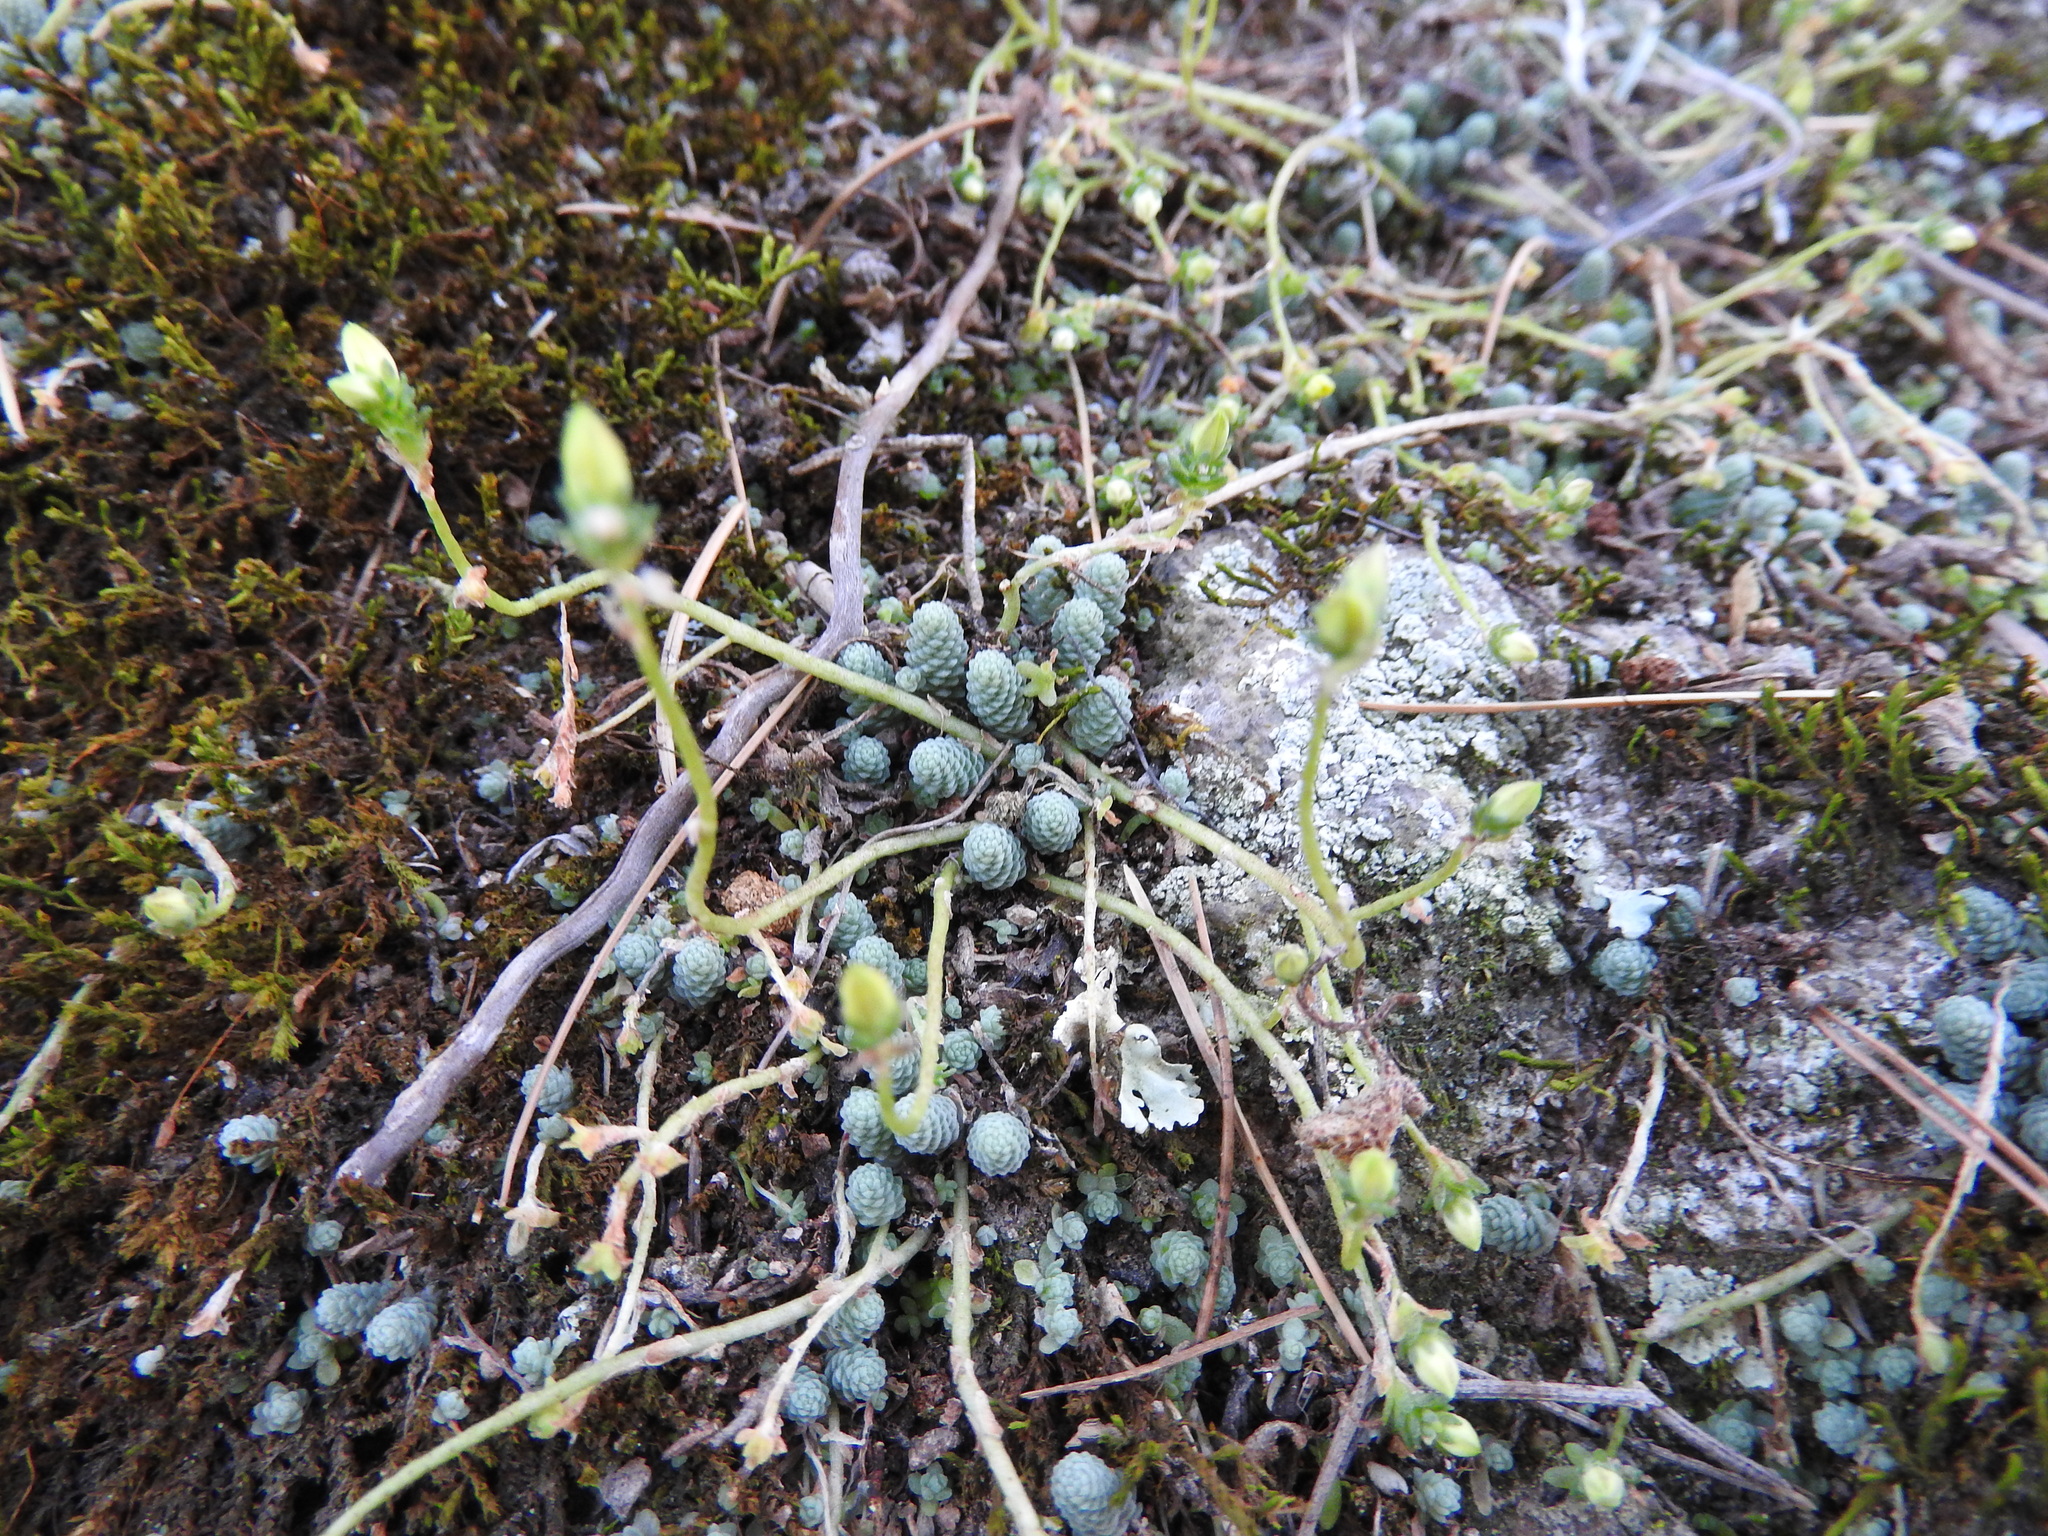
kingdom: Plantae
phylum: Tracheophyta
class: Magnoliopsida
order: Saxifragales
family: Crassulaceae
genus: Sedum
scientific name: Sedum greggii
